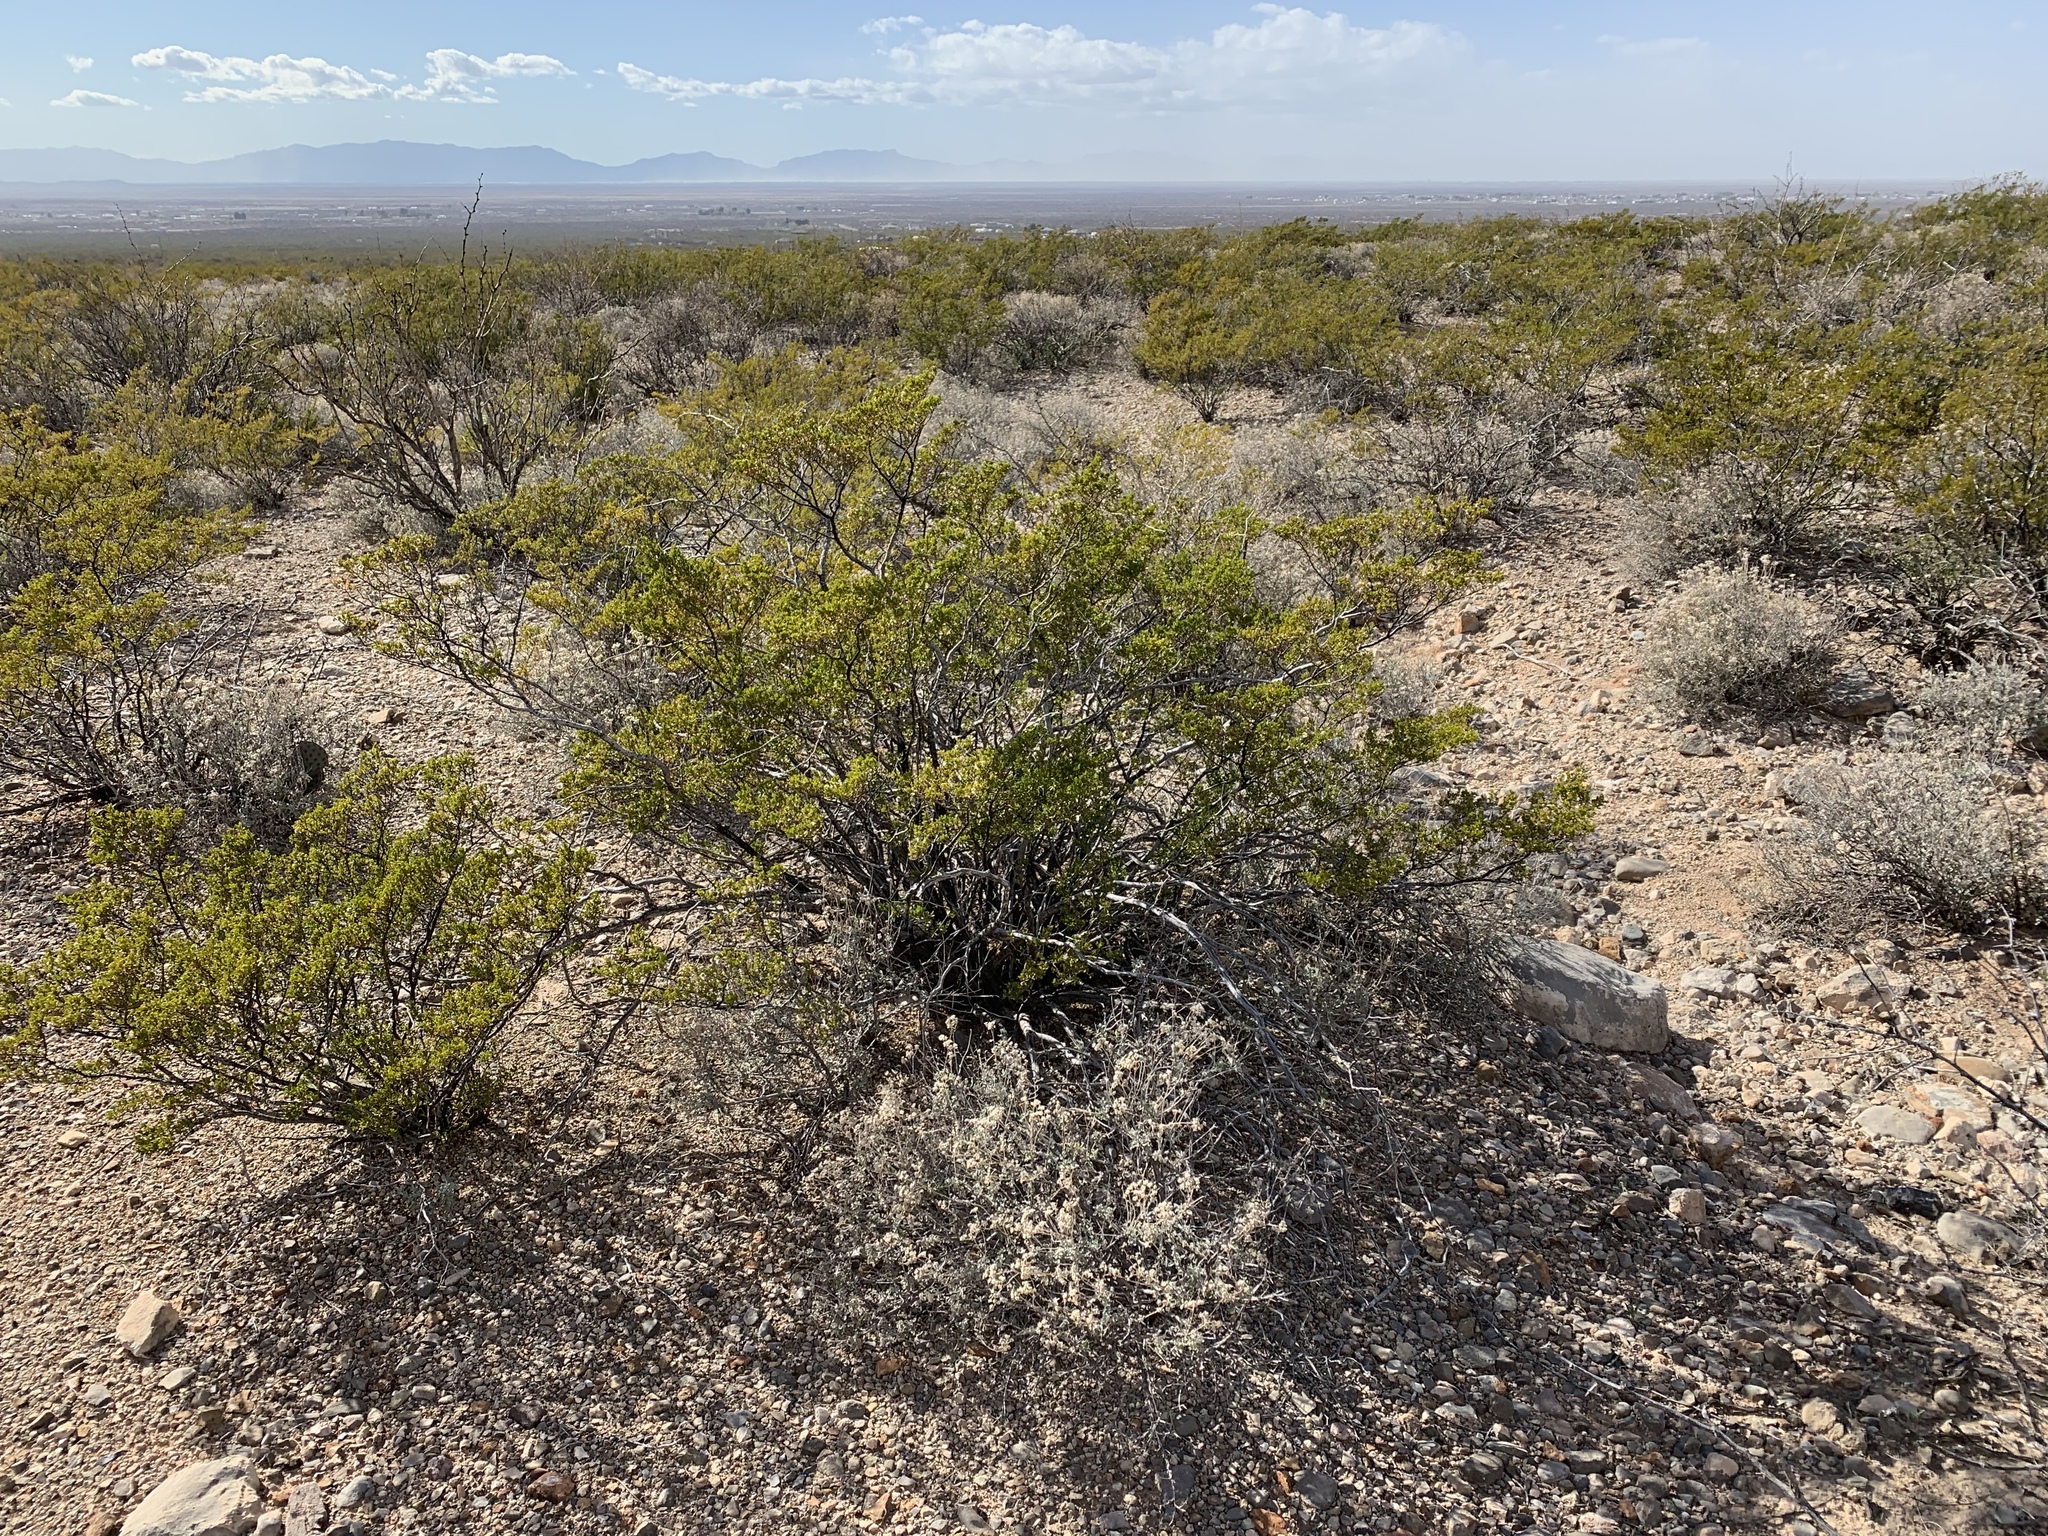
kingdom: Plantae
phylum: Tracheophyta
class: Magnoliopsida
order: Zygophyllales
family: Zygophyllaceae
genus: Larrea
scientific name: Larrea tridentata
